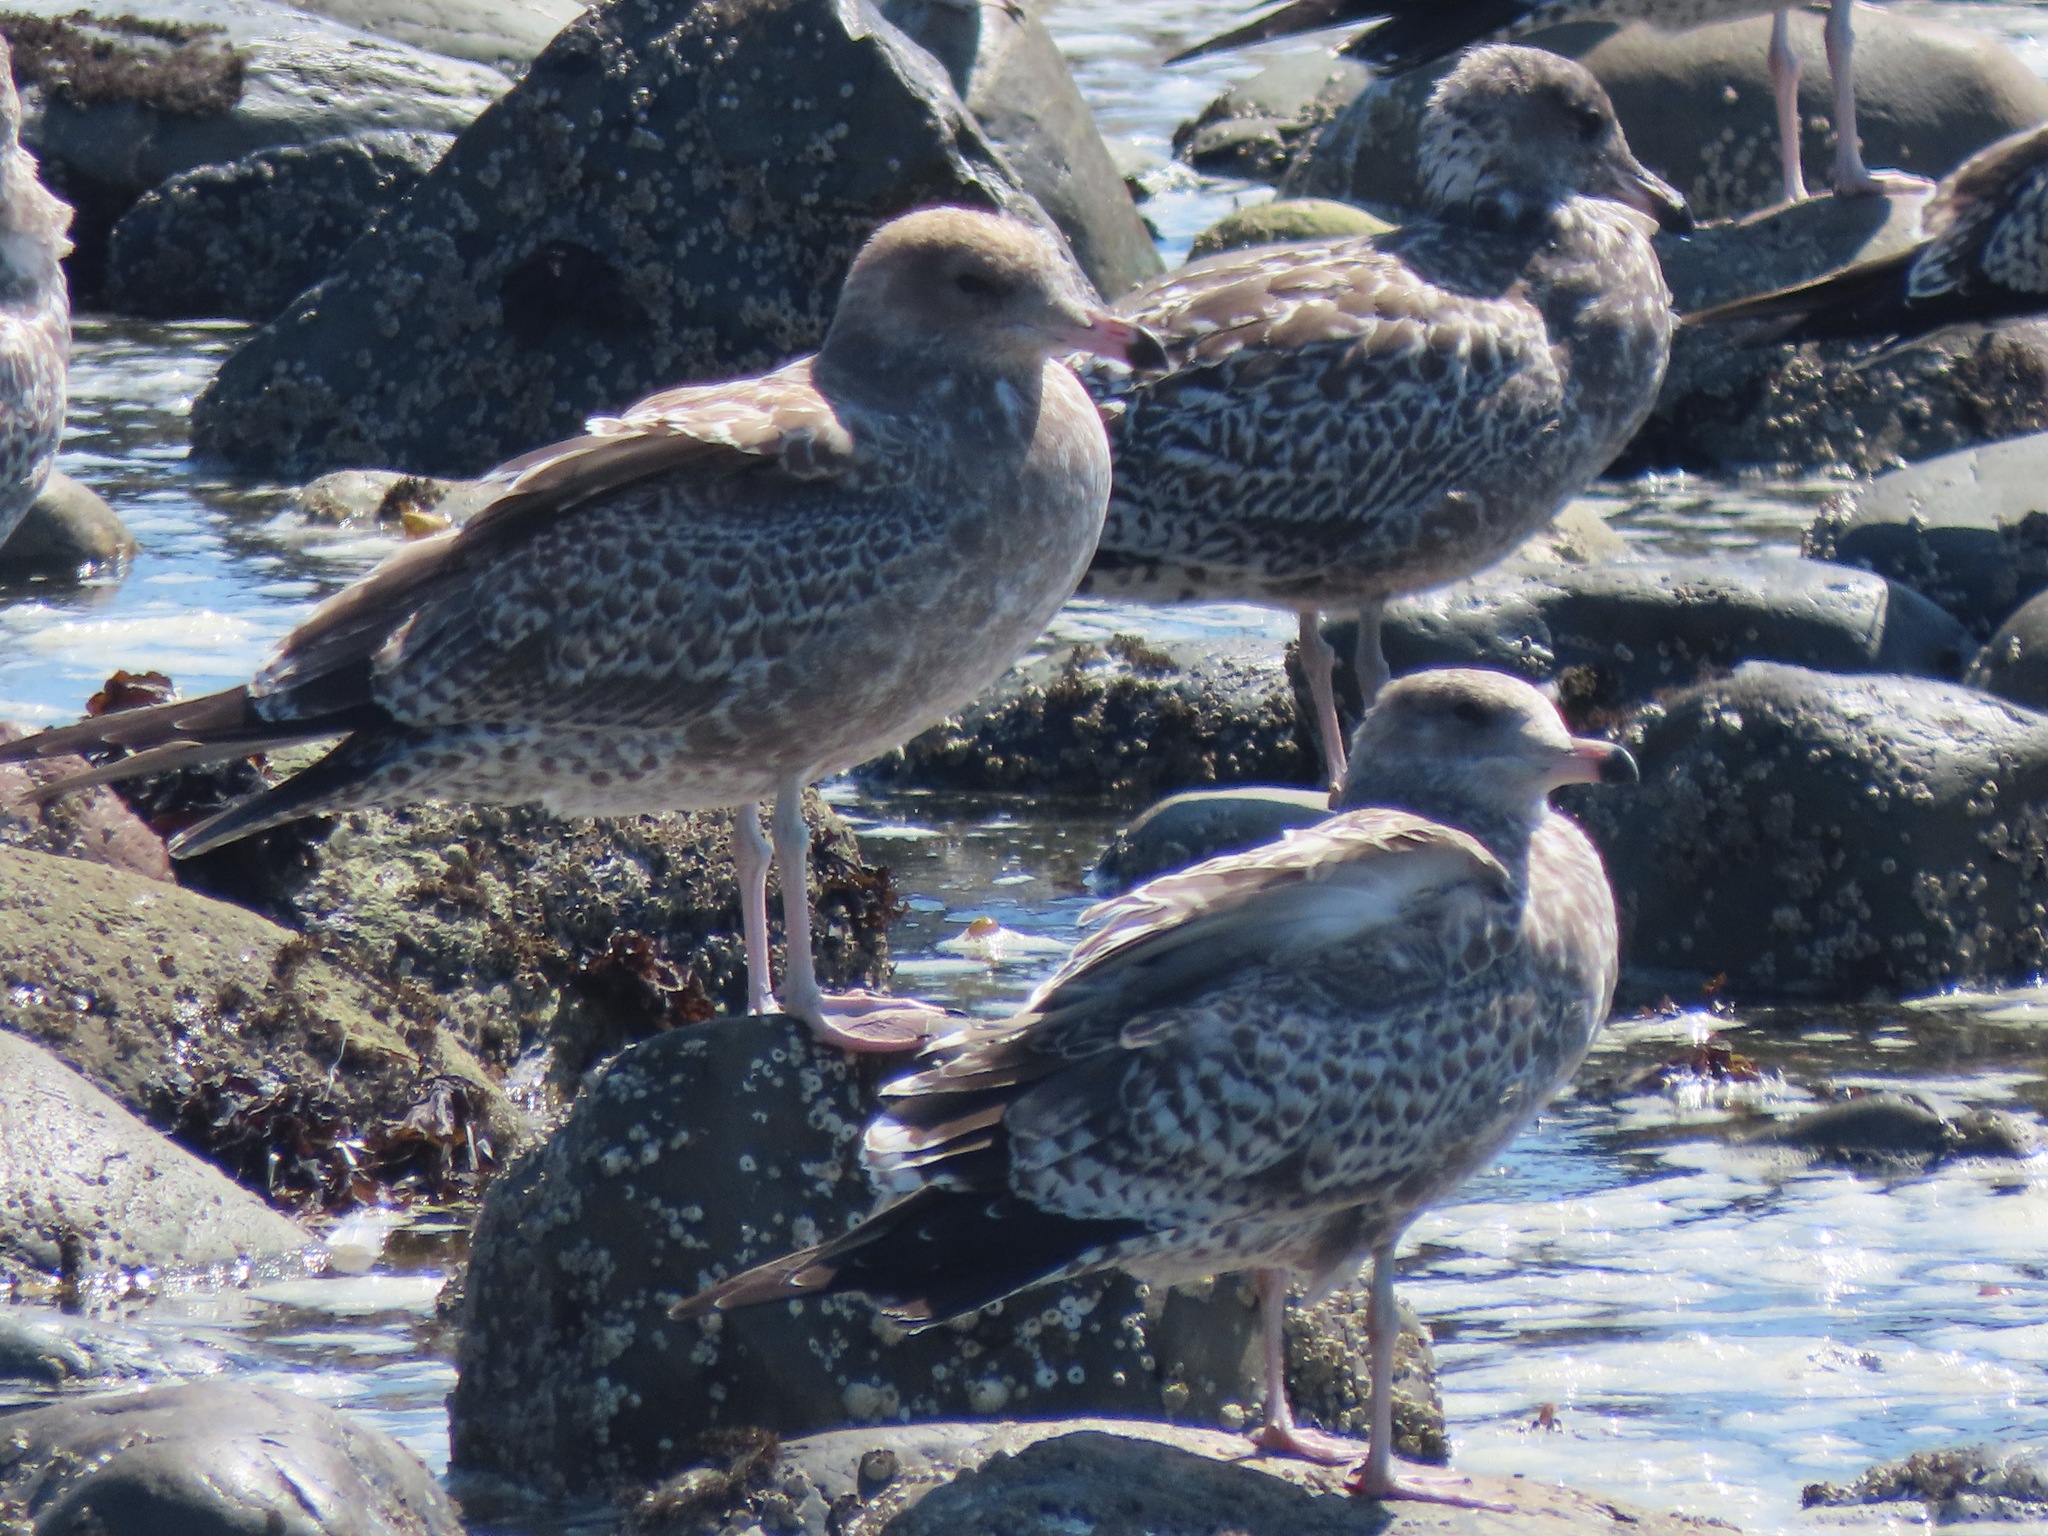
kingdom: Animalia
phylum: Chordata
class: Aves
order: Charadriiformes
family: Laridae
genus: Larus
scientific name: Larus californicus
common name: California gull
